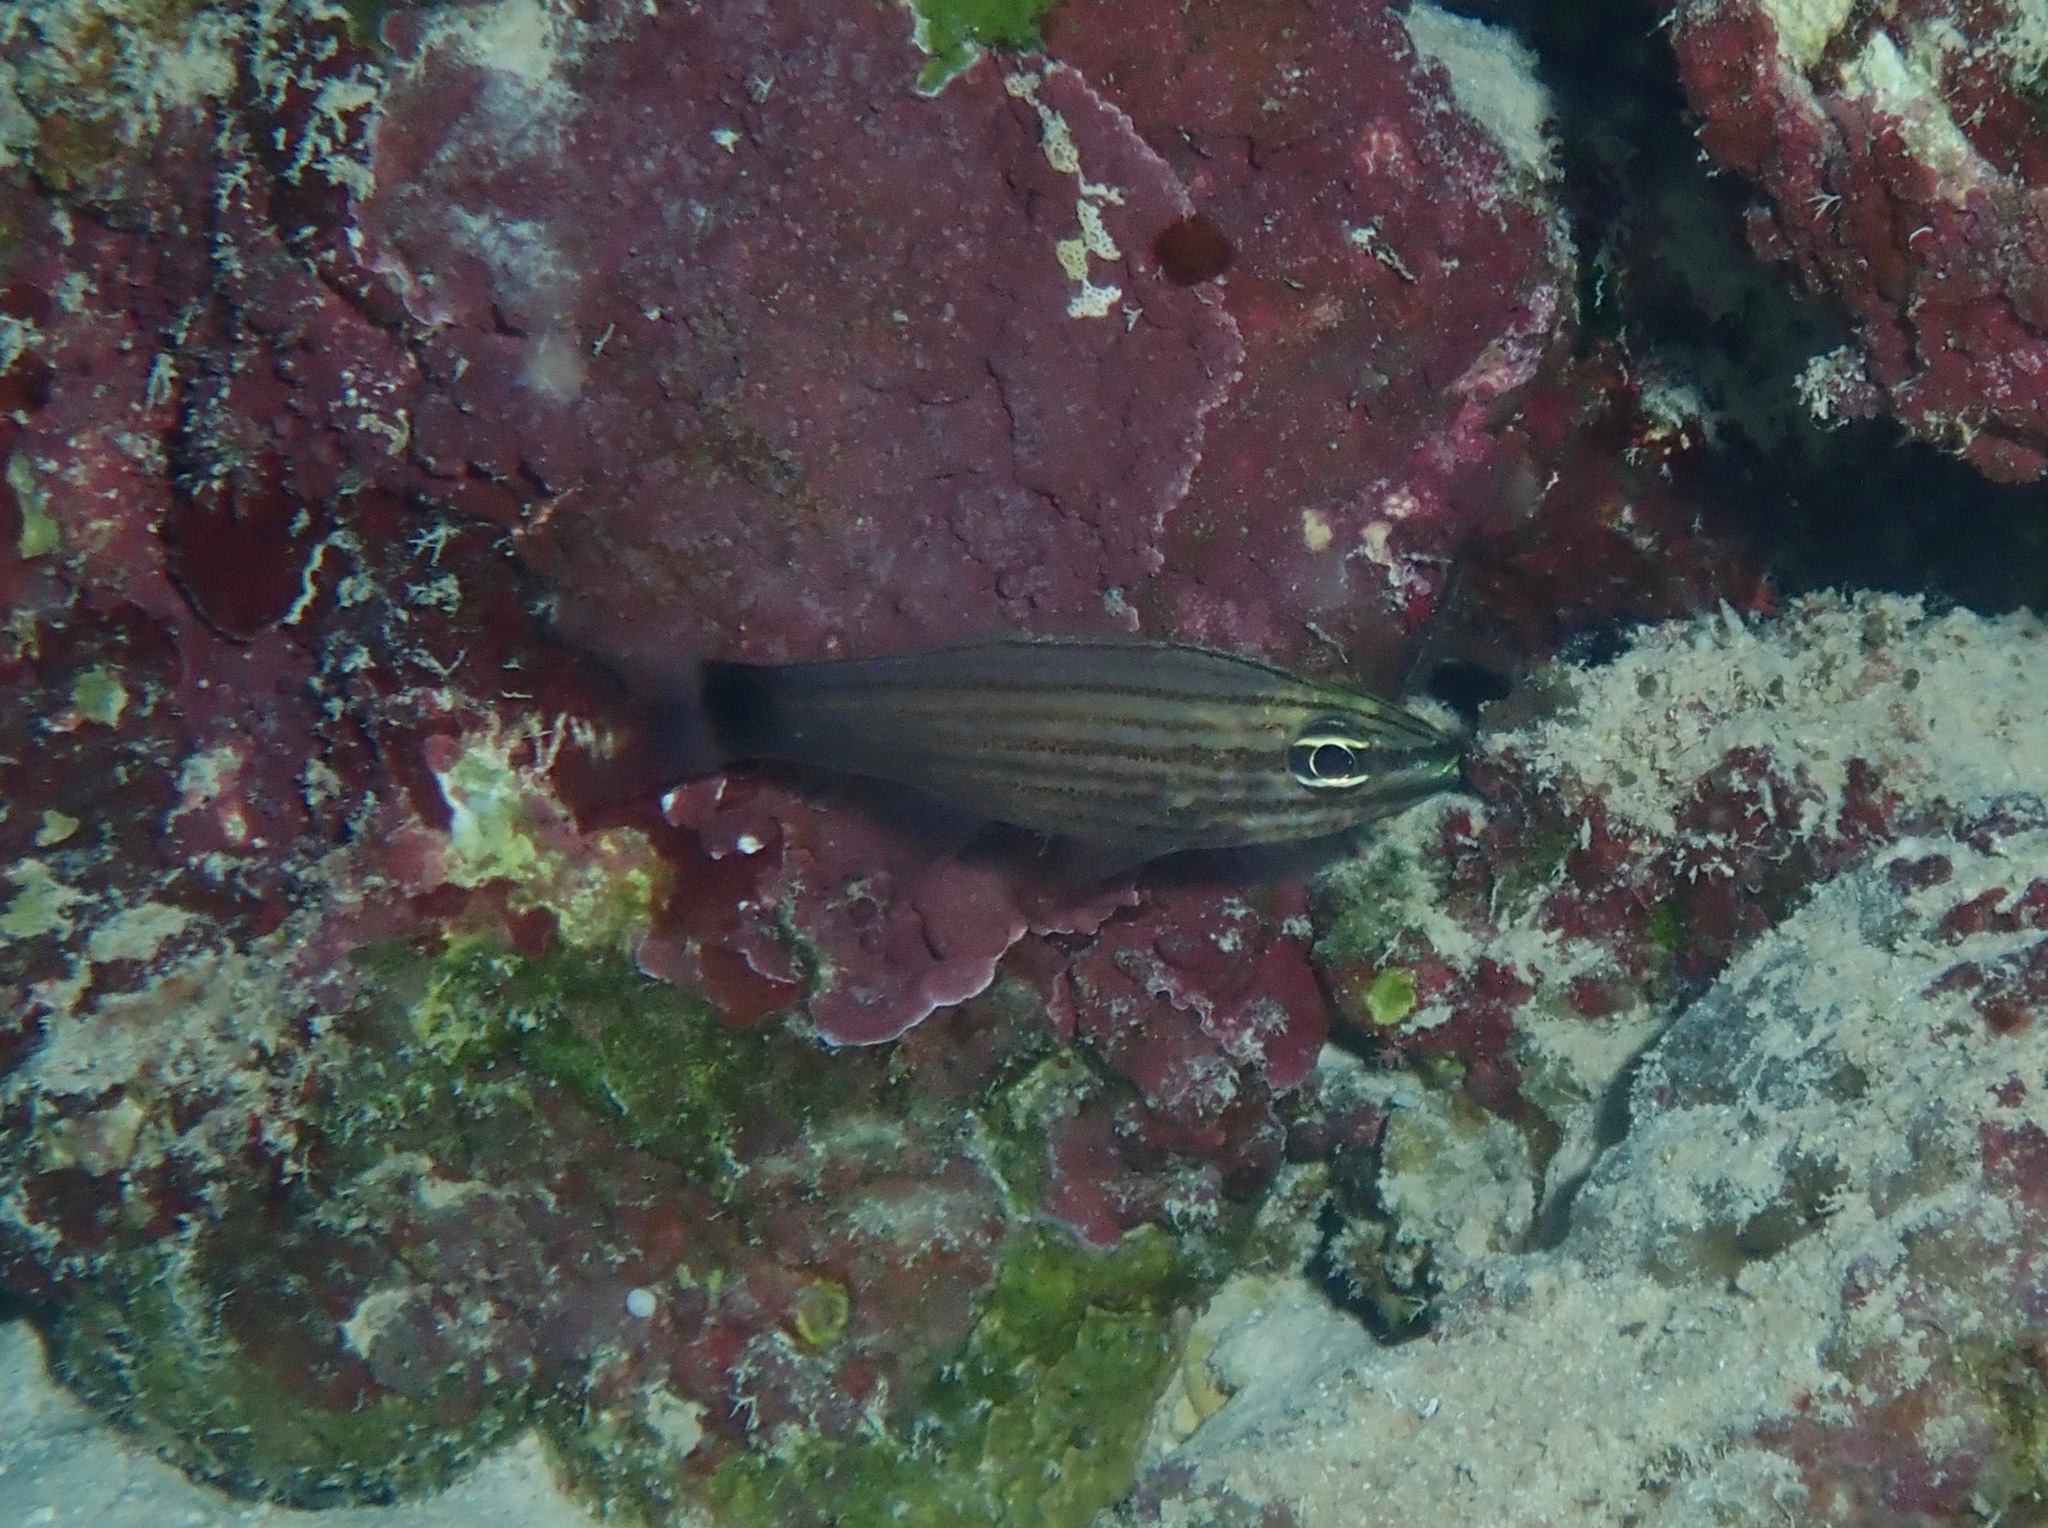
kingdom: Animalia
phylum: Chordata
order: Perciformes
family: Apogonidae
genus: Cheilodipterus
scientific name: Cheilodipterus artus
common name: Wolf cardinal
